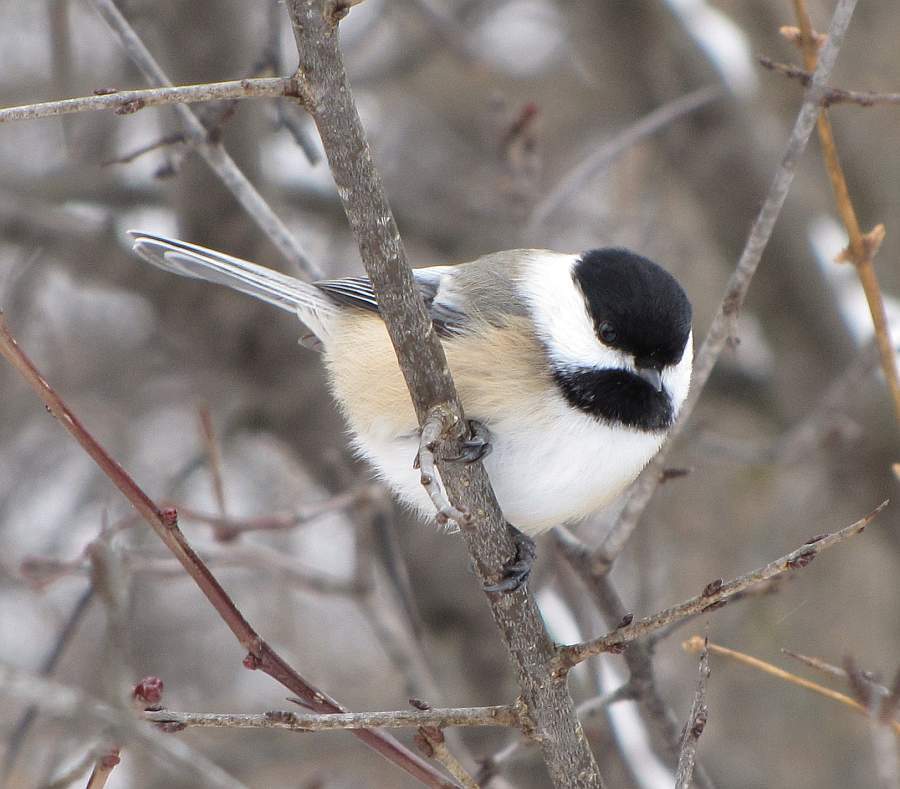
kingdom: Animalia
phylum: Chordata
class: Aves
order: Passeriformes
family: Paridae
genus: Poecile
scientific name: Poecile atricapillus
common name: Black-capped chickadee
